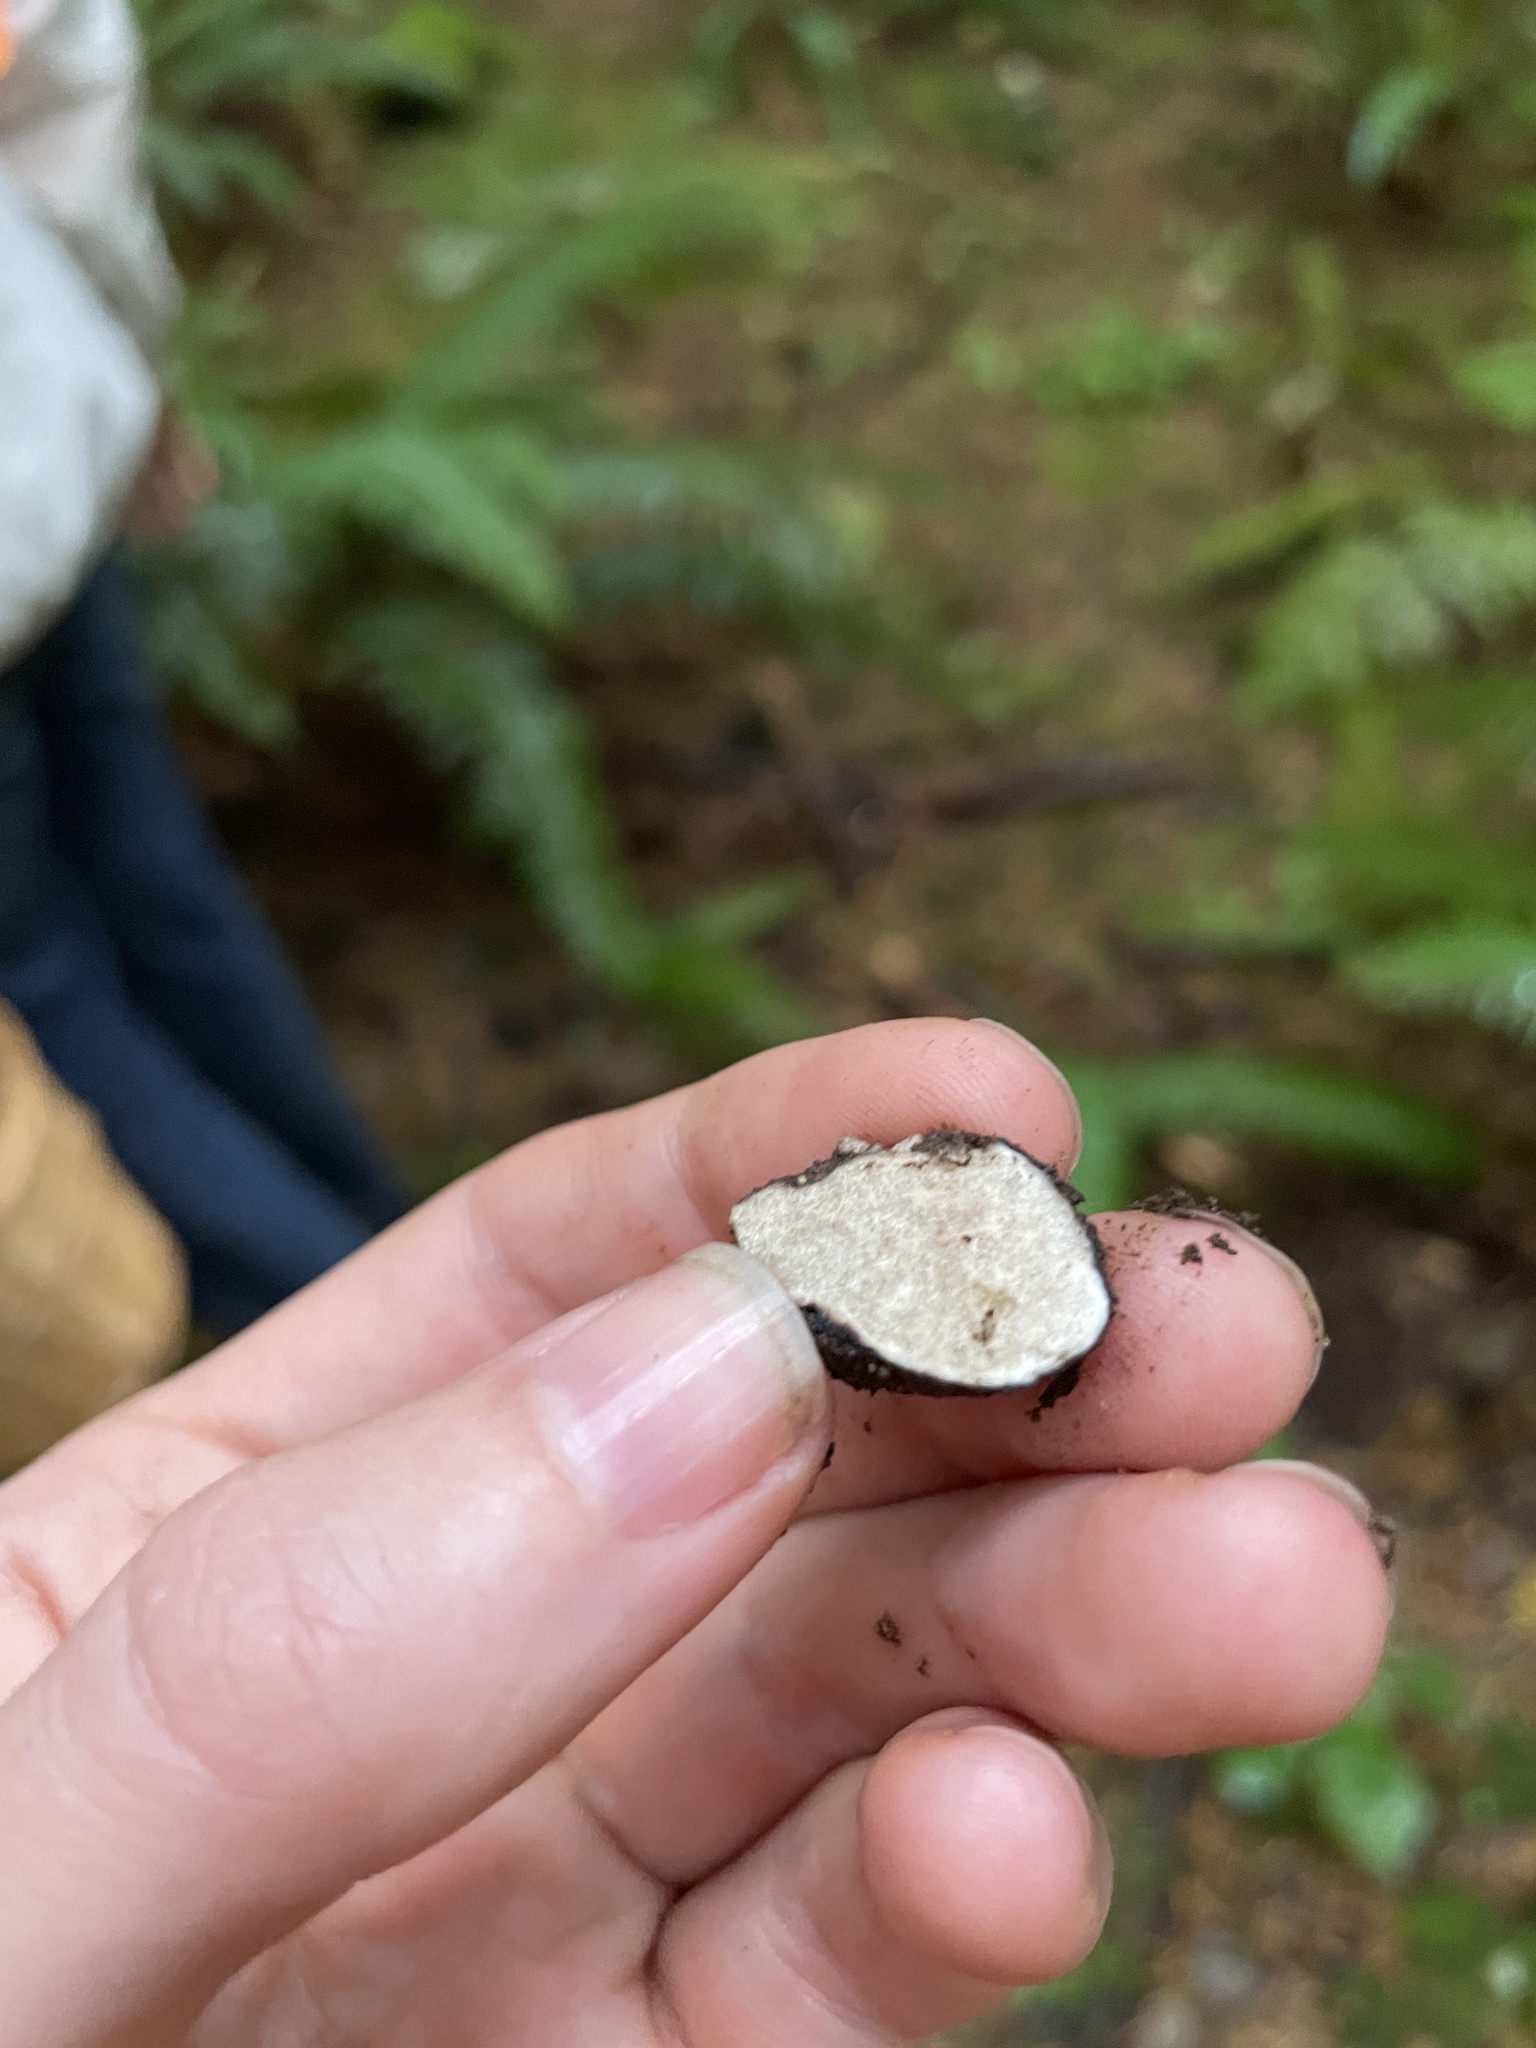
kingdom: Fungi
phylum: Ascomycota
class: Pezizomycetes
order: Pezizales
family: Morchellaceae
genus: Leucangium
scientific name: Leucangium carthusianum
